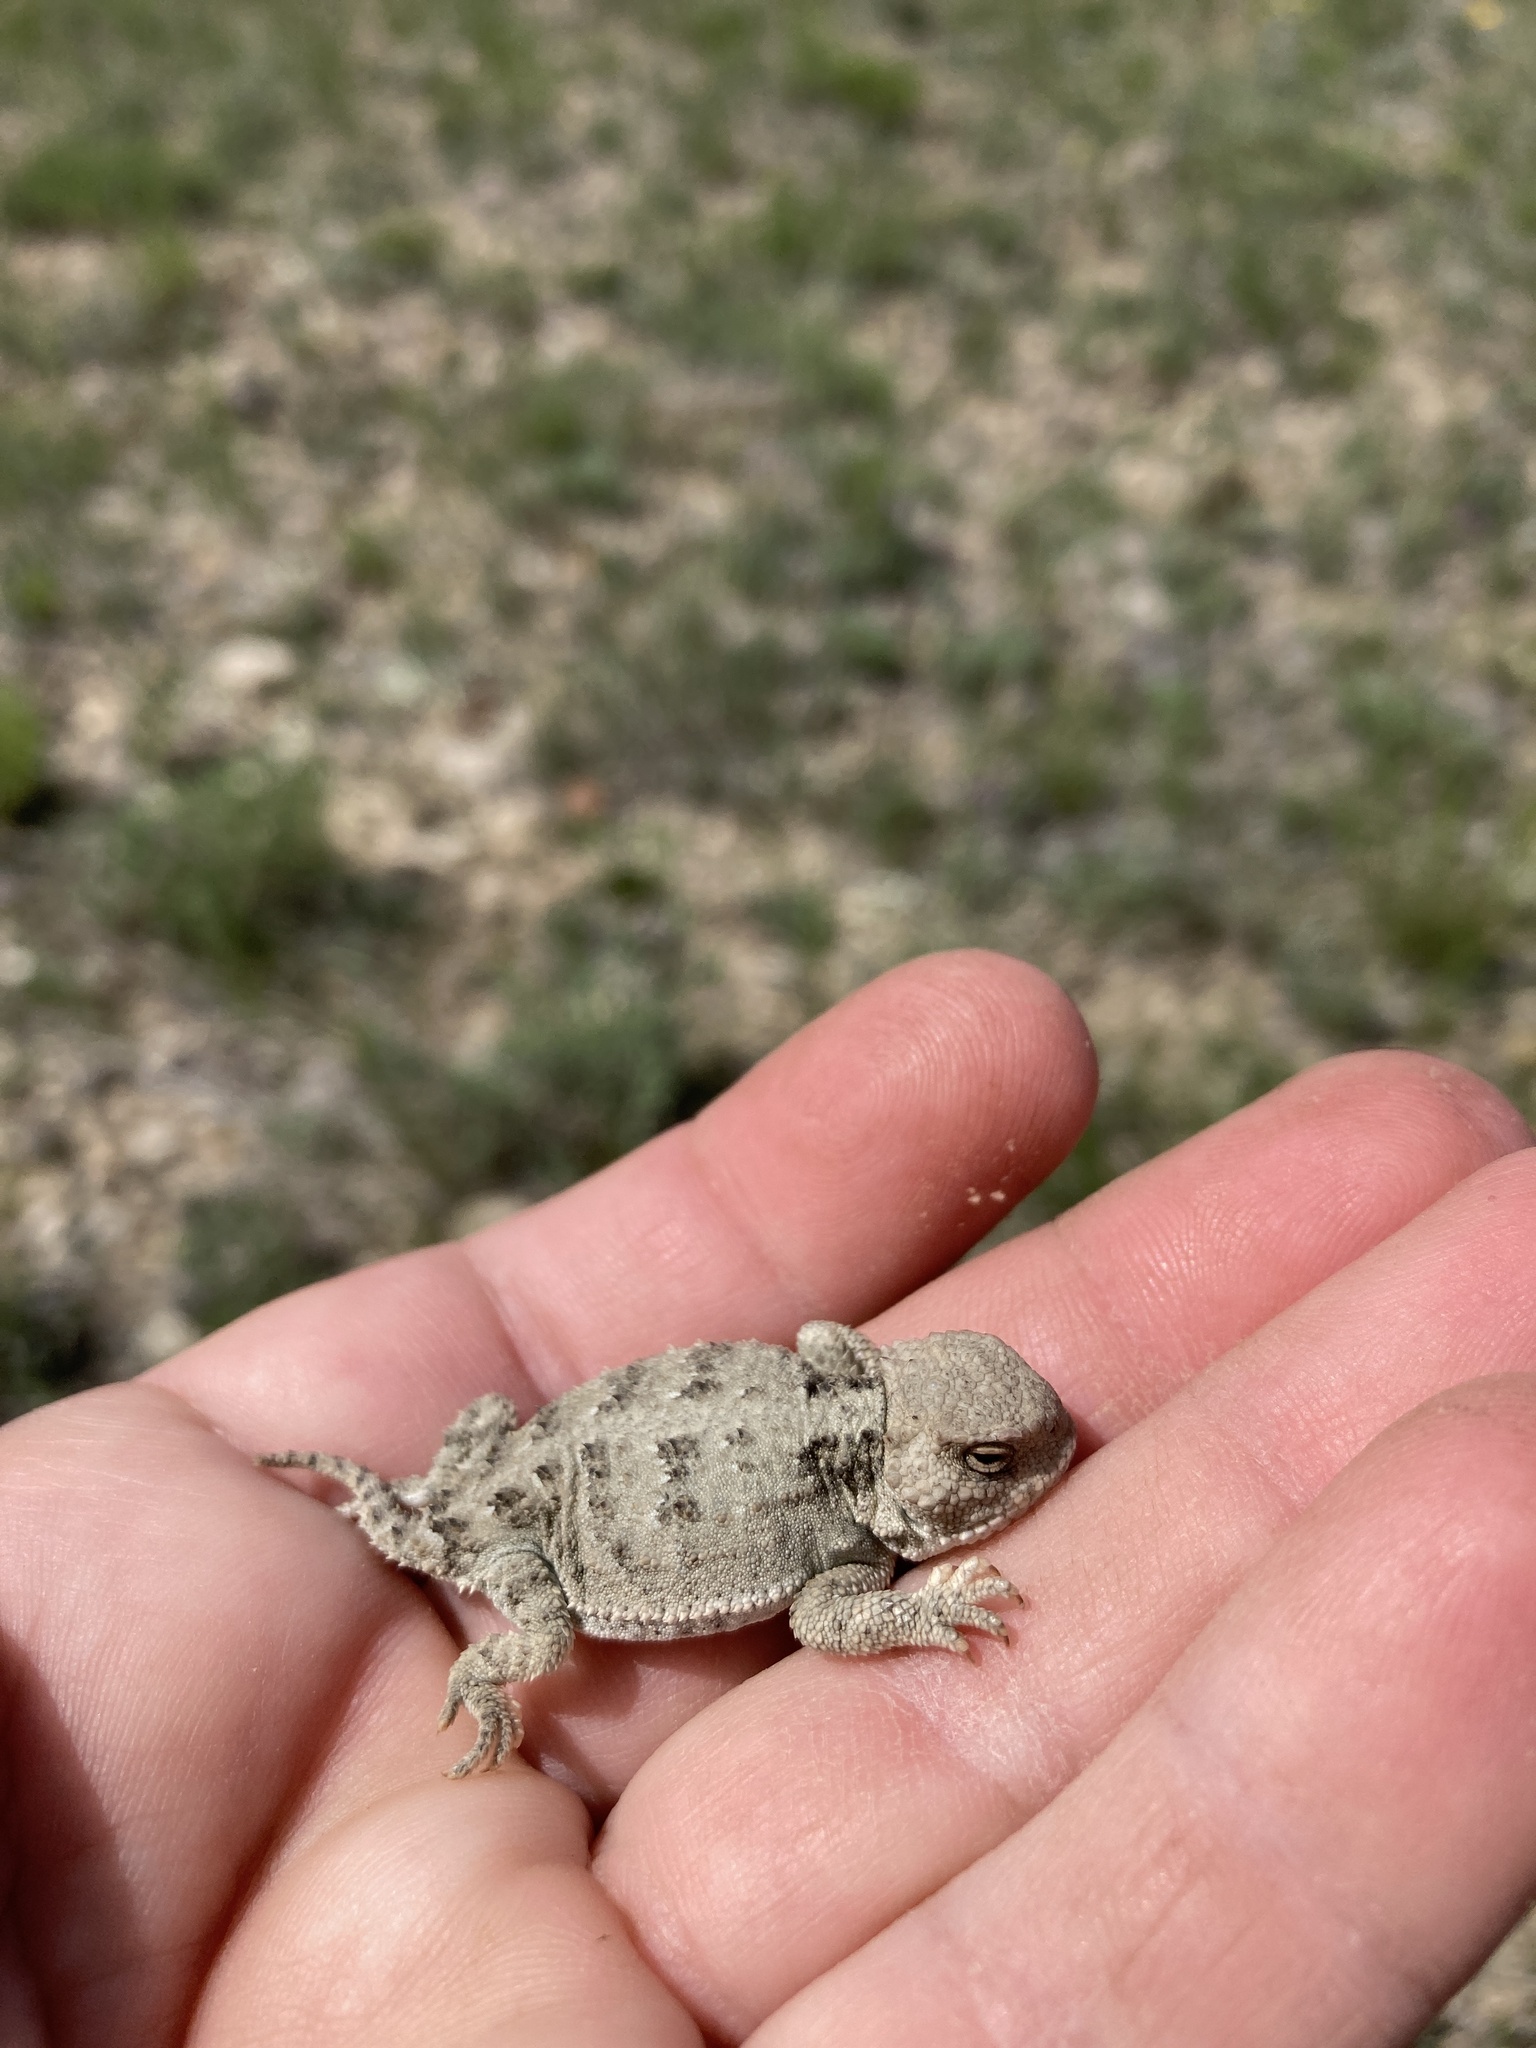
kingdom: Animalia
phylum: Chordata
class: Squamata
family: Phrynosomatidae
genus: Phrynosoma
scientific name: Phrynosoma hernandesi
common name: Greater short-horned lizard
